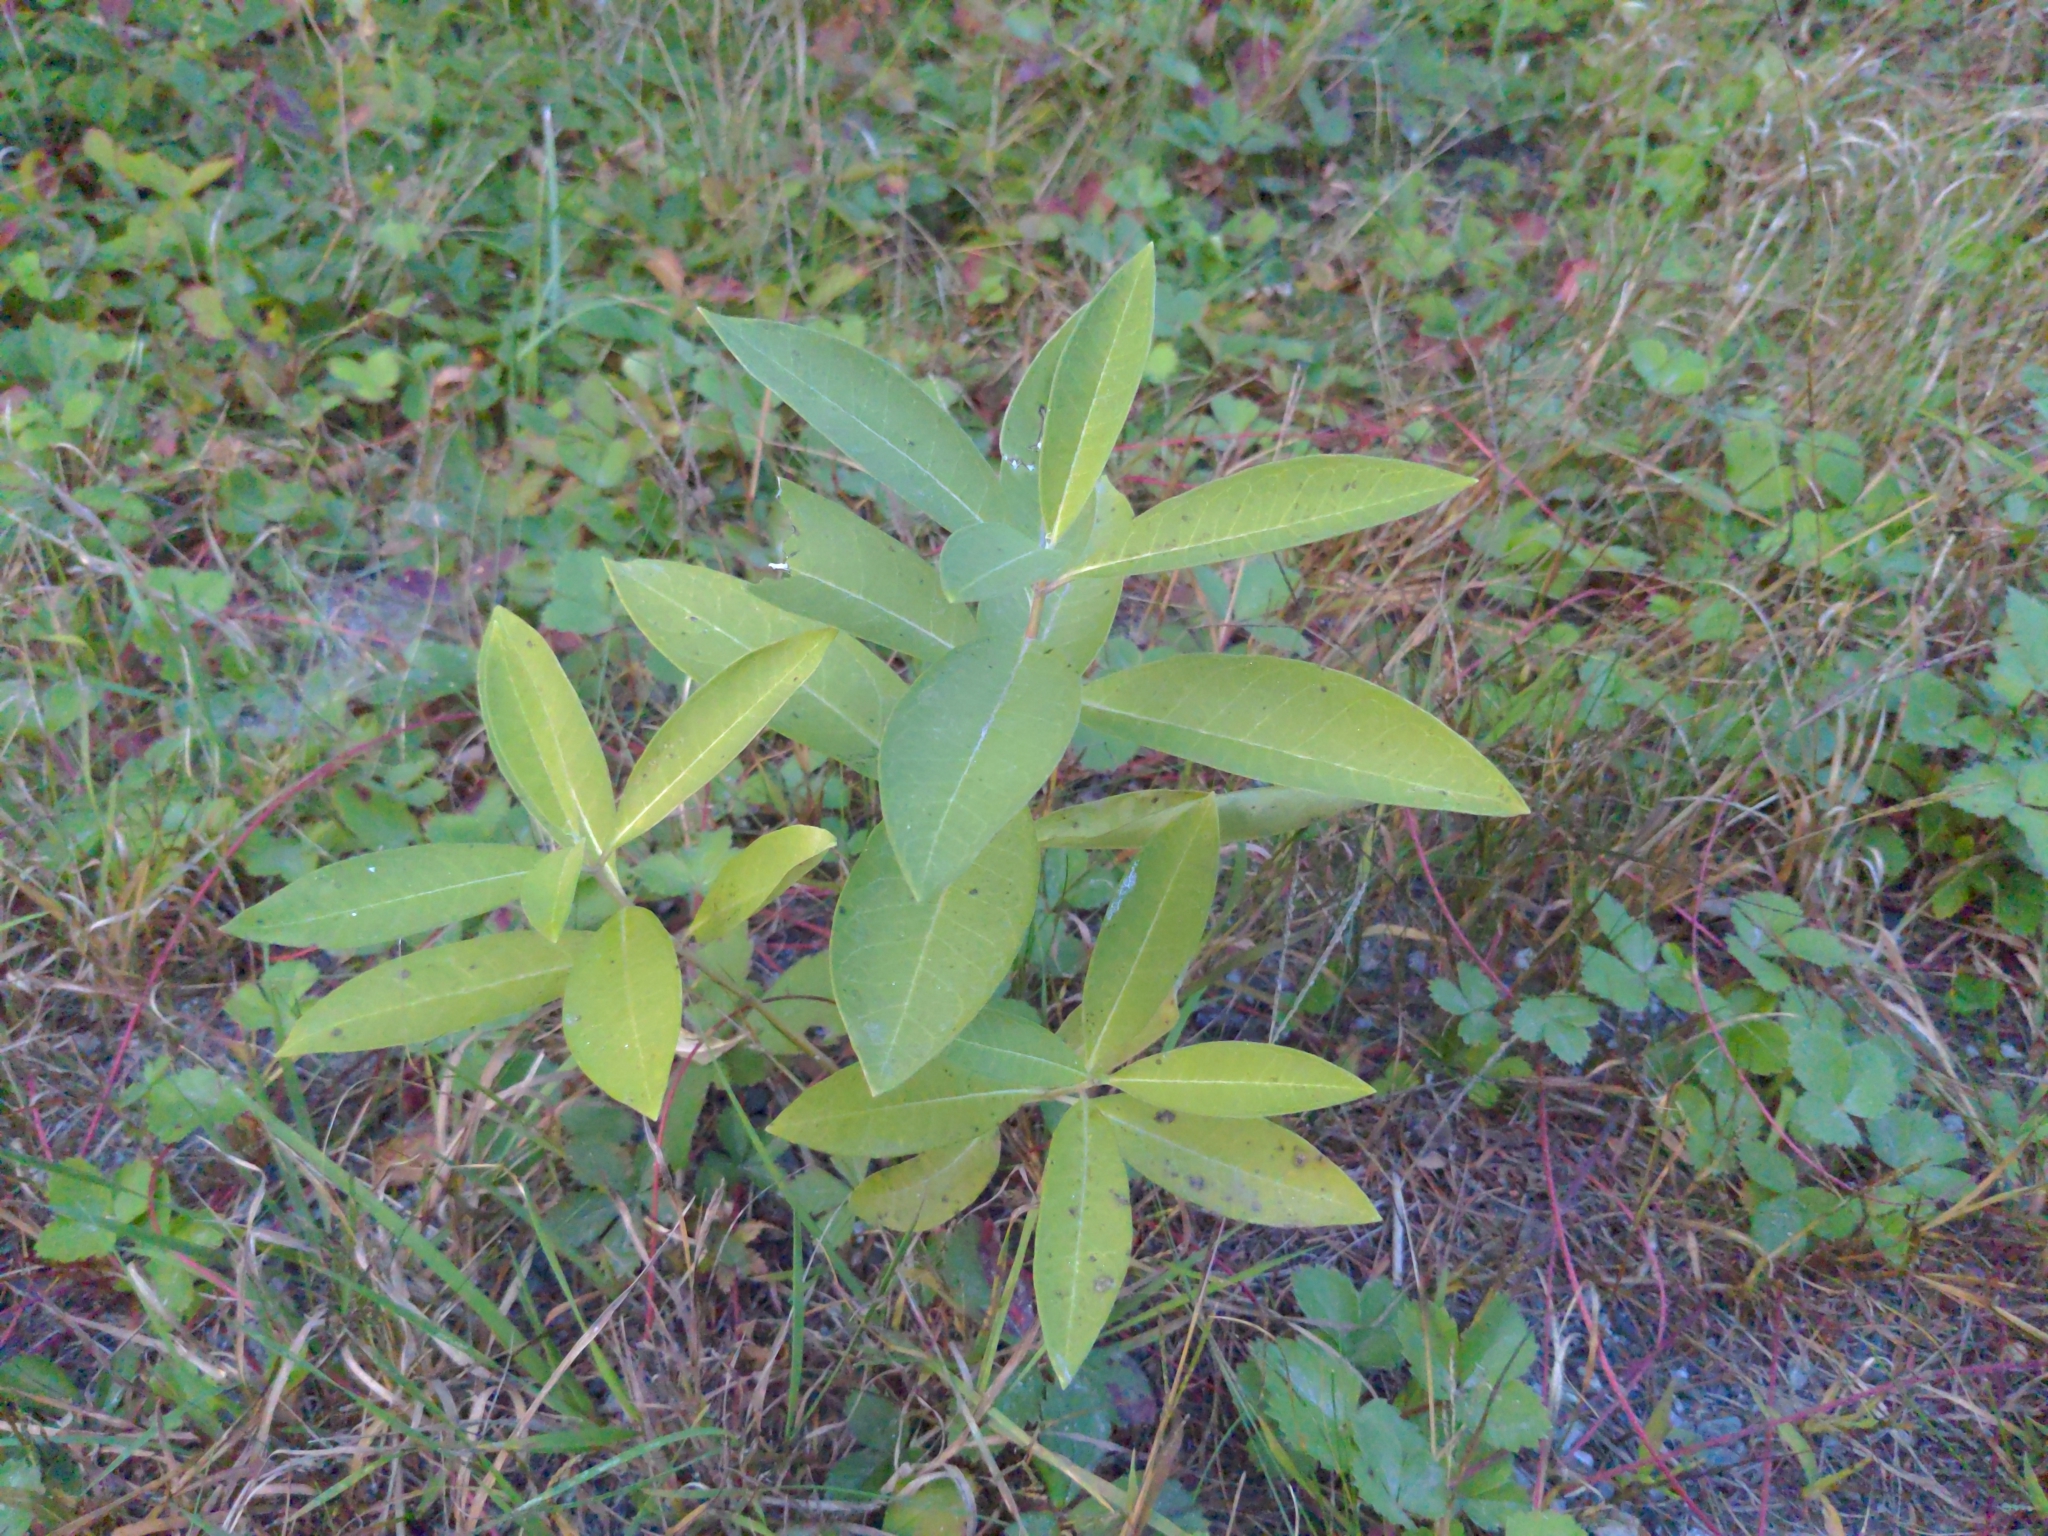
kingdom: Plantae
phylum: Tracheophyta
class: Magnoliopsida
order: Gentianales
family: Apocynaceae
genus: Asclepias
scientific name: Asclepias syriaca
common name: Common milkweed
